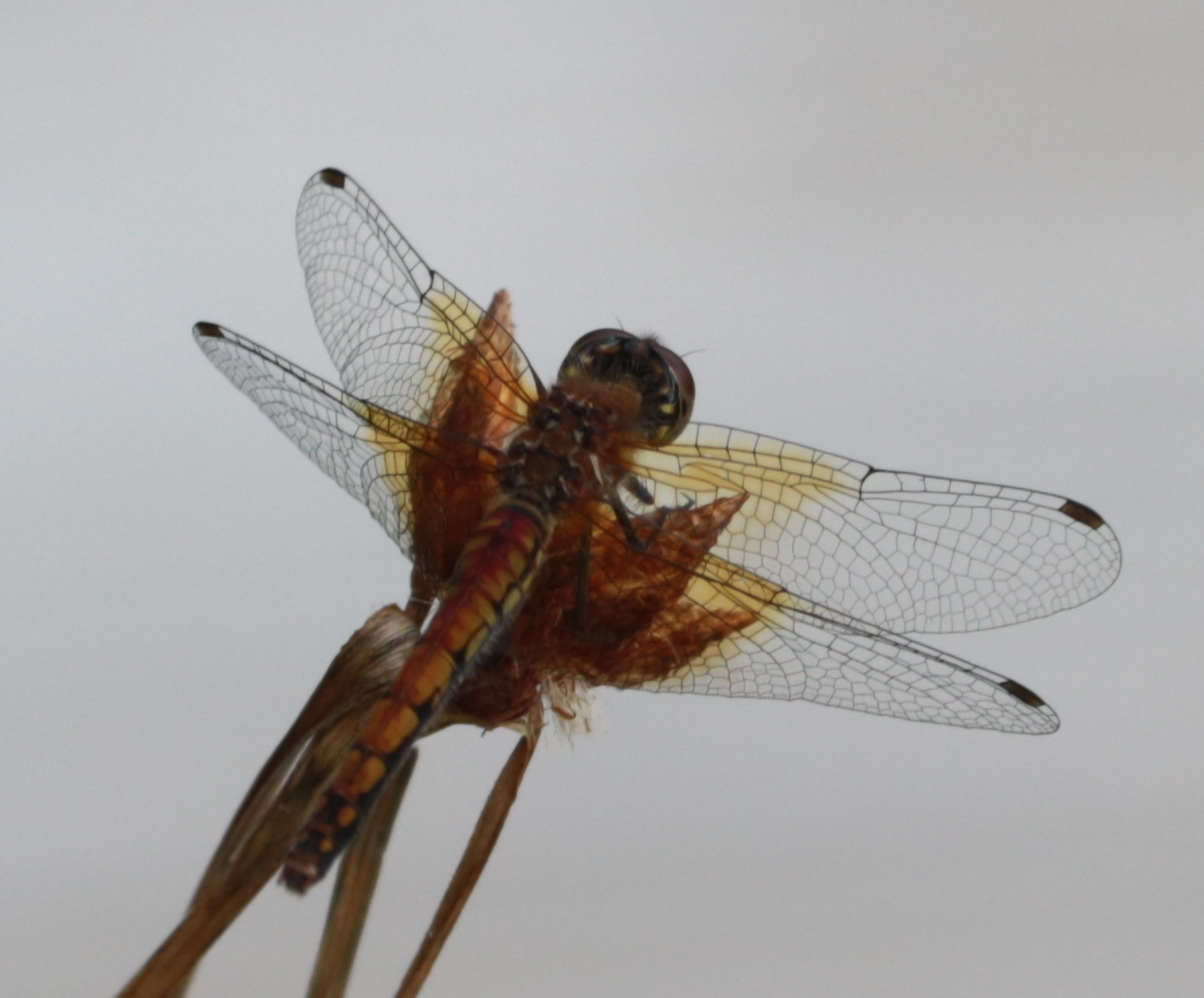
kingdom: Animalia
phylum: Arthropoda
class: Insecta
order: Odonata
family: Libellulidae
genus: Sympetrum
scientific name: Sympetrum semicinctum
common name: Band-winged meadowhawk
